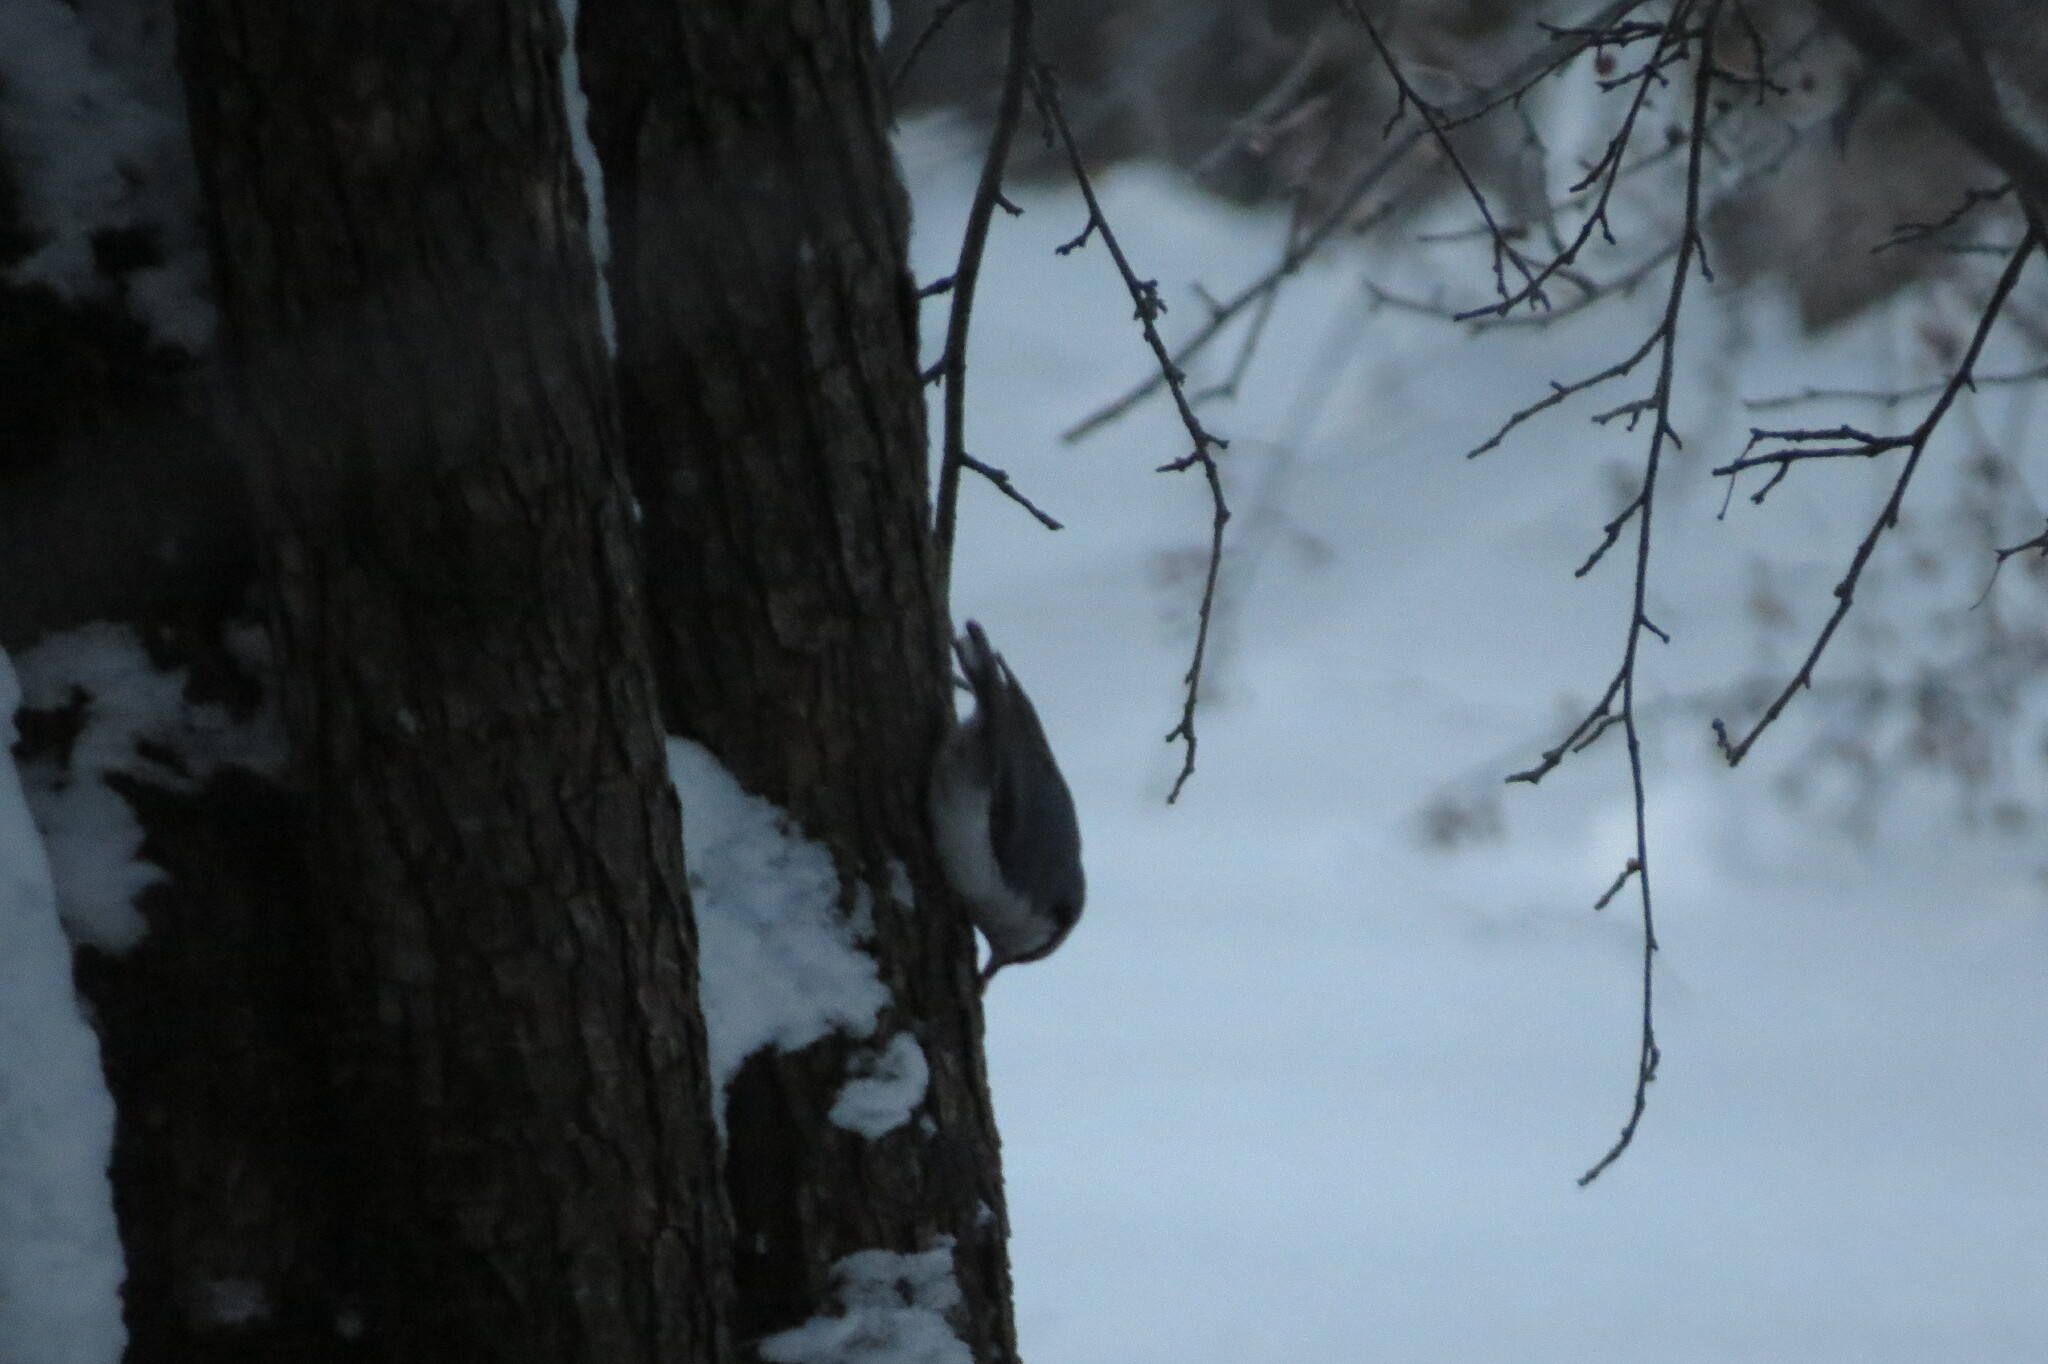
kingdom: Animalia
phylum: Chordata
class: Aves
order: Passeriformes
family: Sittidae
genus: Sitta
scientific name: Sitta europaea
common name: Eurasian nuthatch
